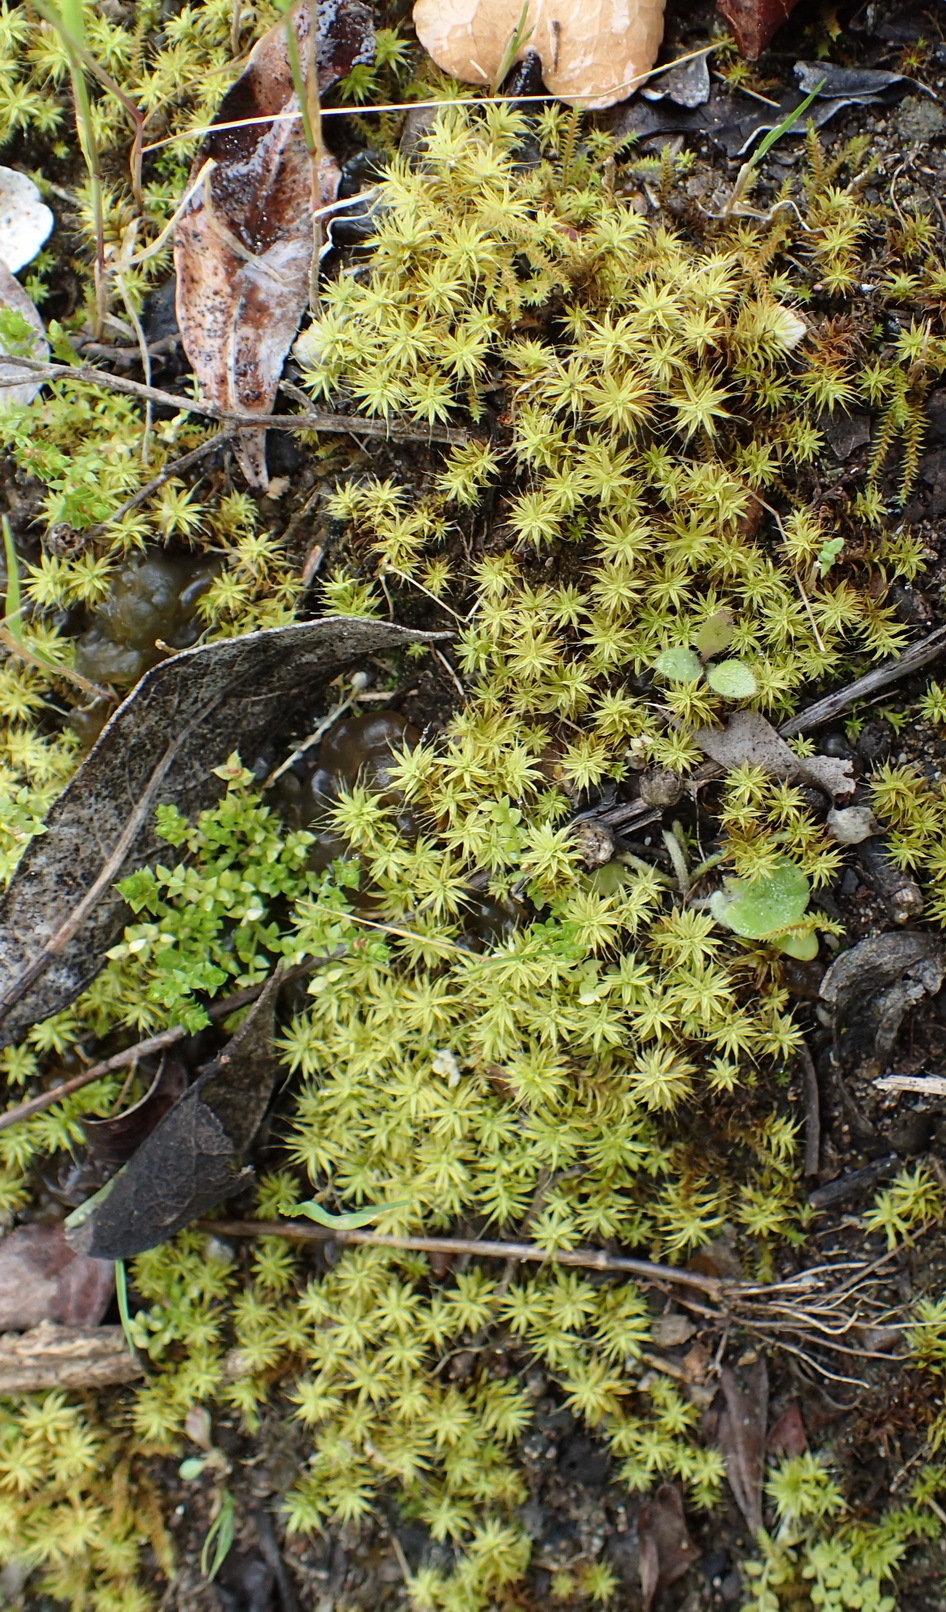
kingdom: Plantae
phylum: Bryophyta
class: Bryopsida
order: Pottiales
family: Pottiaceae
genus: Pseudocrossidium
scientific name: Pseudocrossidium crinitum
